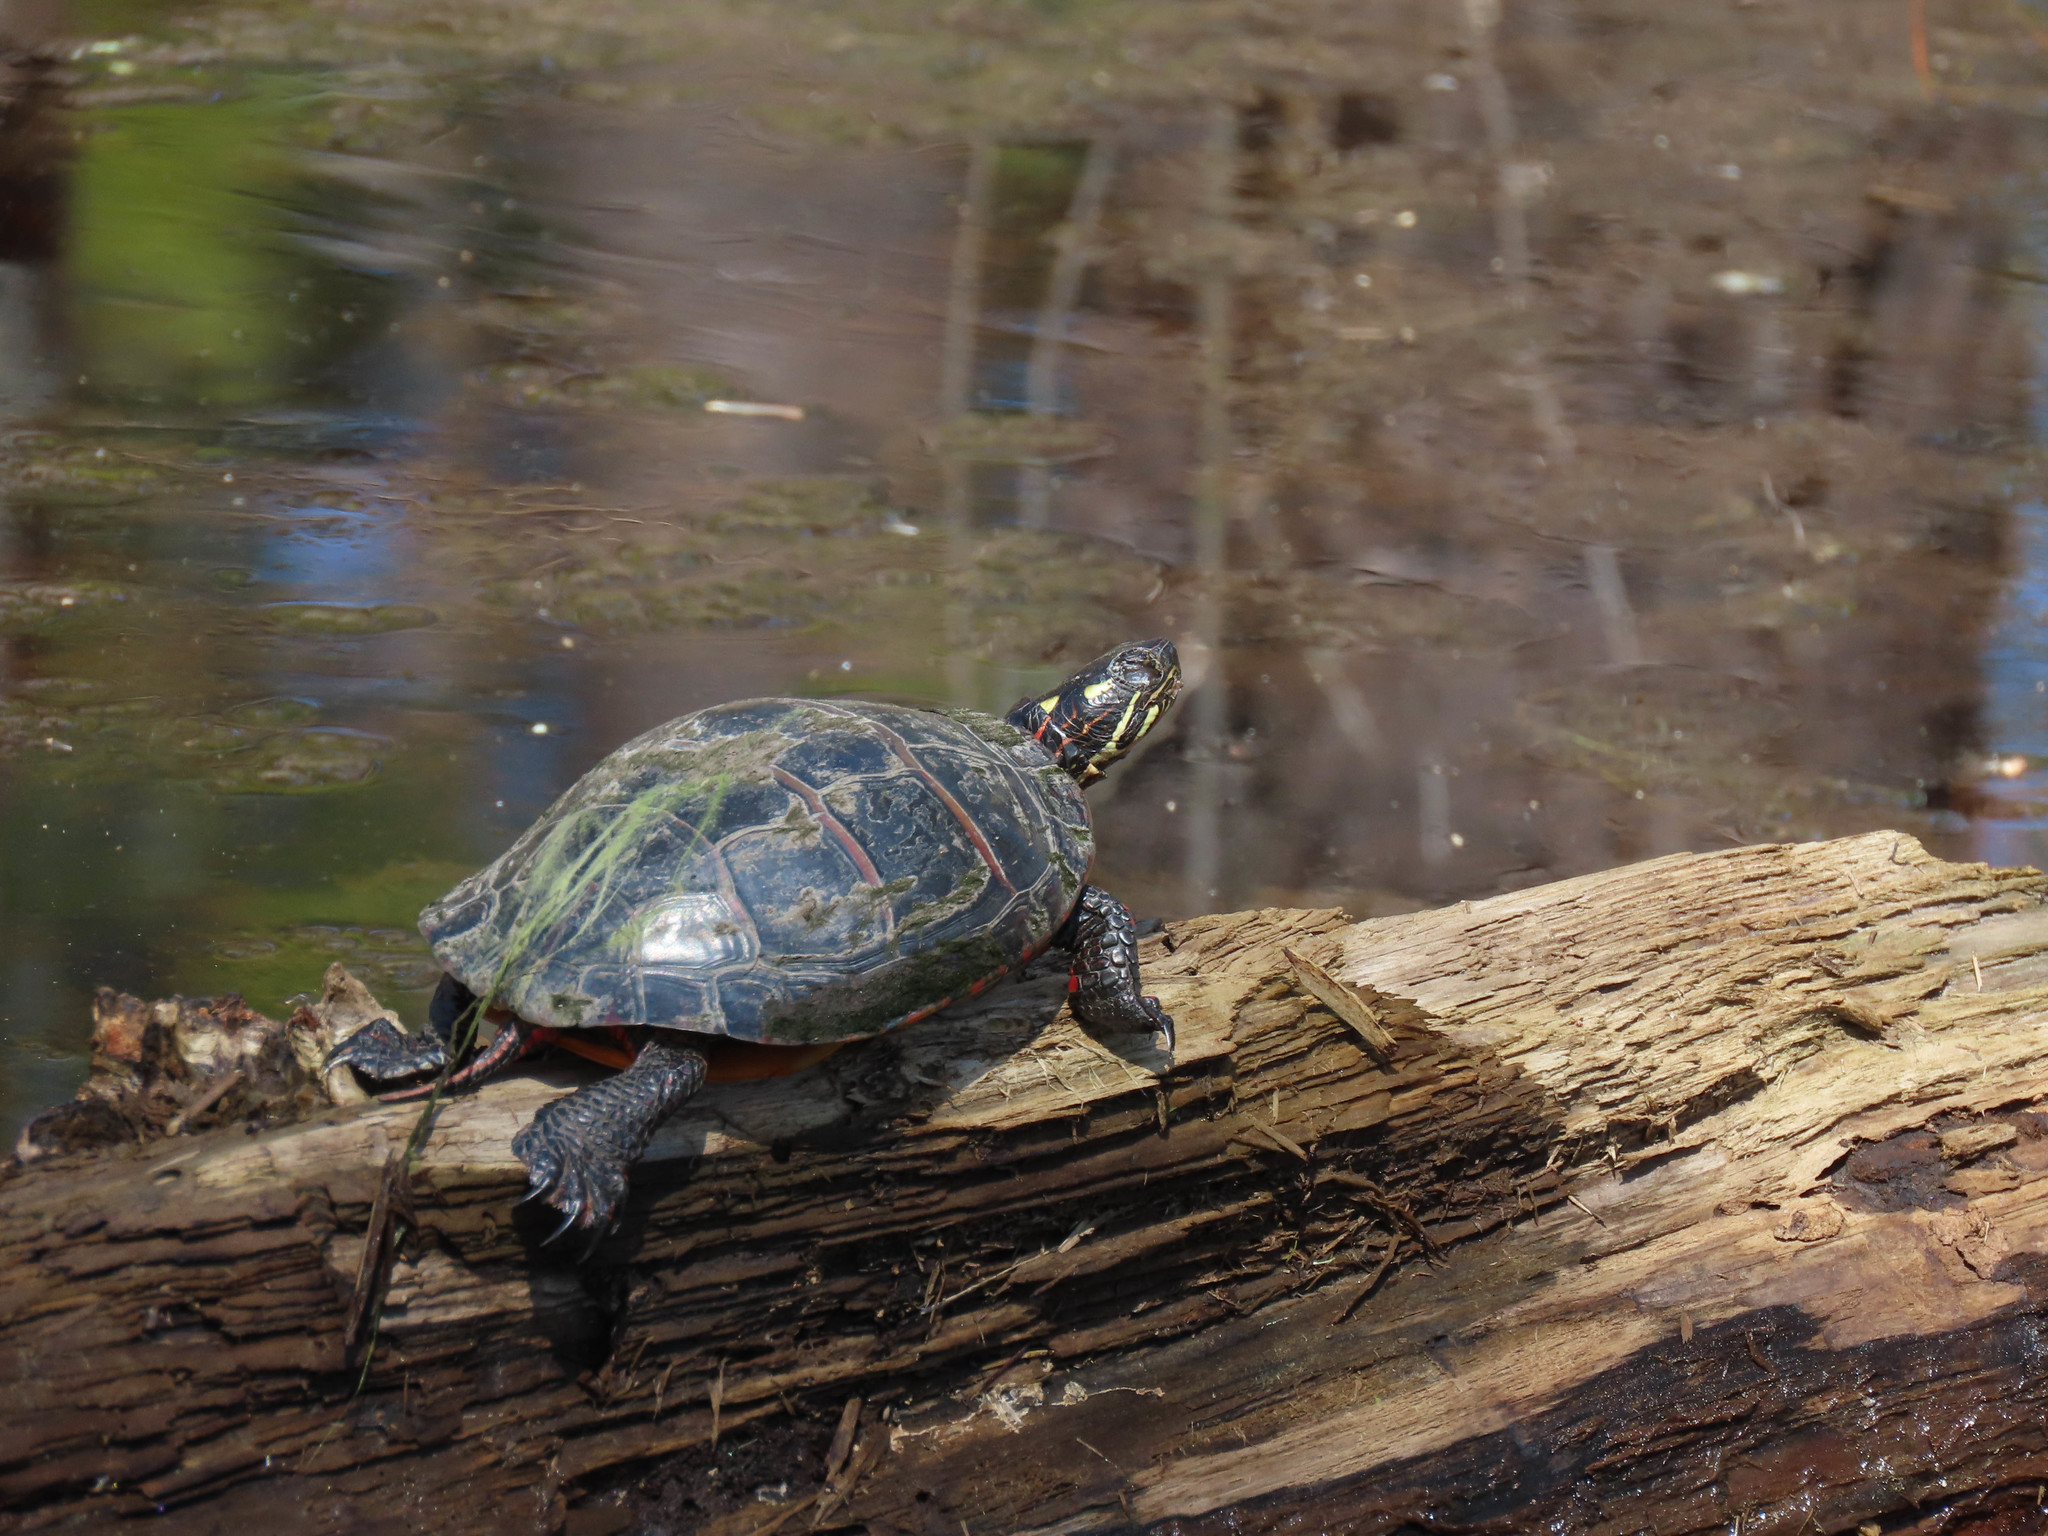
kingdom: Animalia
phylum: Chordata
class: Testudines
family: Emydidae
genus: Chrysemys
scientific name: Chrysemys picta
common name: Painted turtle
